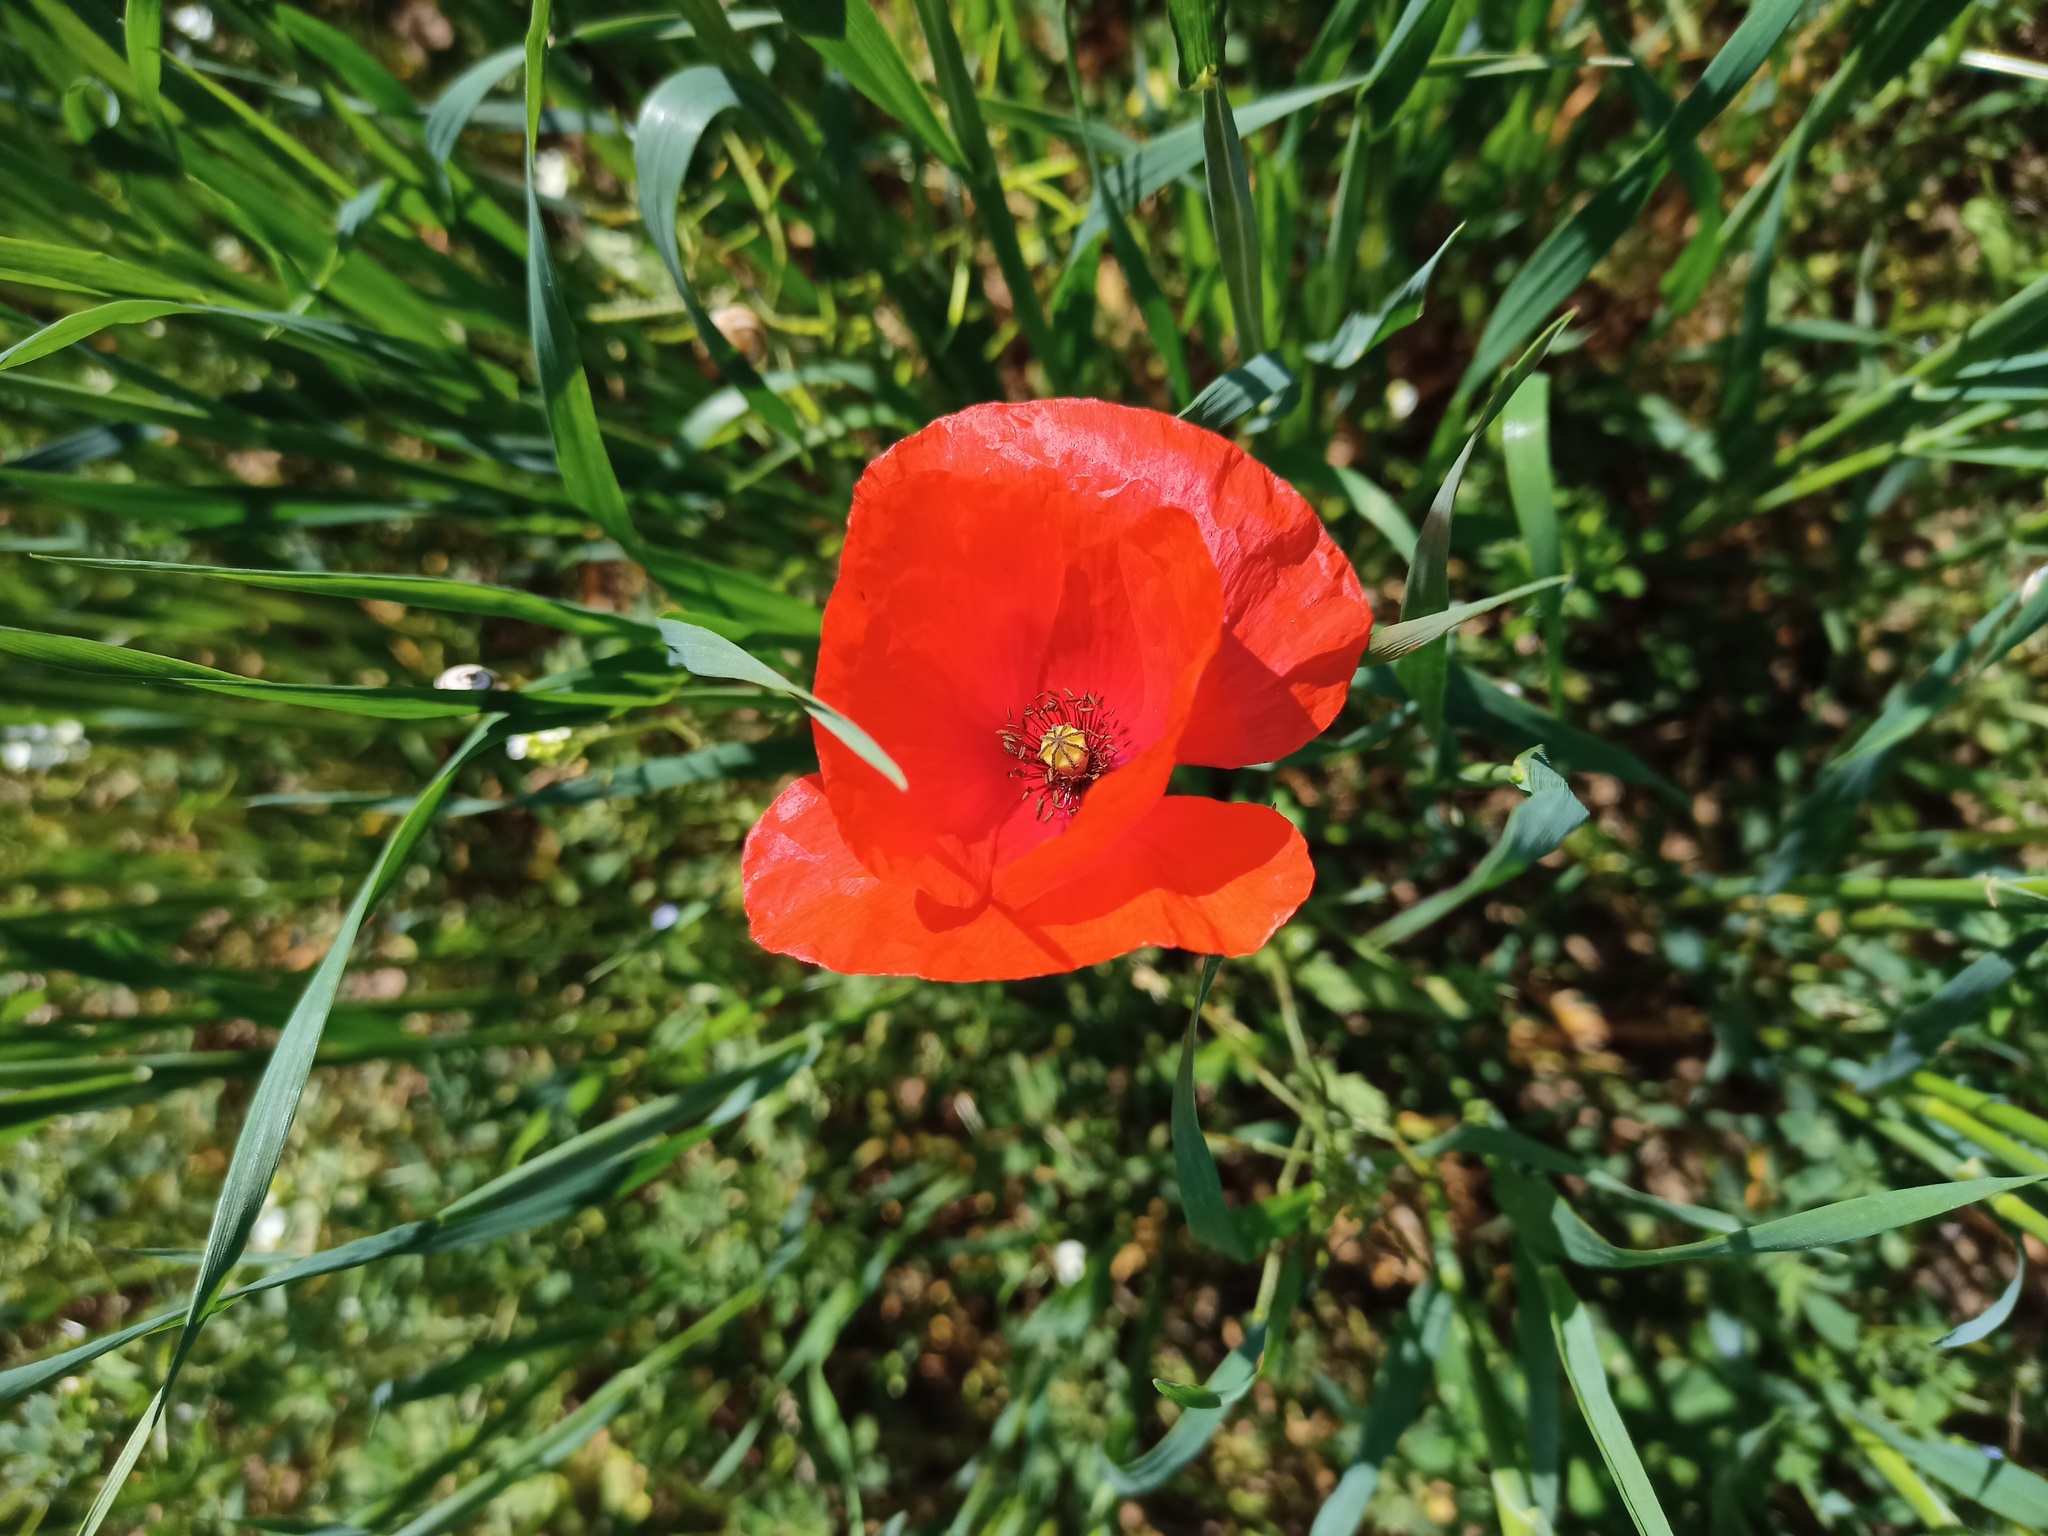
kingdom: Plantae
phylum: Tracheophyta
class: Magnoliopsida
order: Ranunculales
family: Papaveraceae
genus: Papaver
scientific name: Papaver rhoeas
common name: Corn poppy
